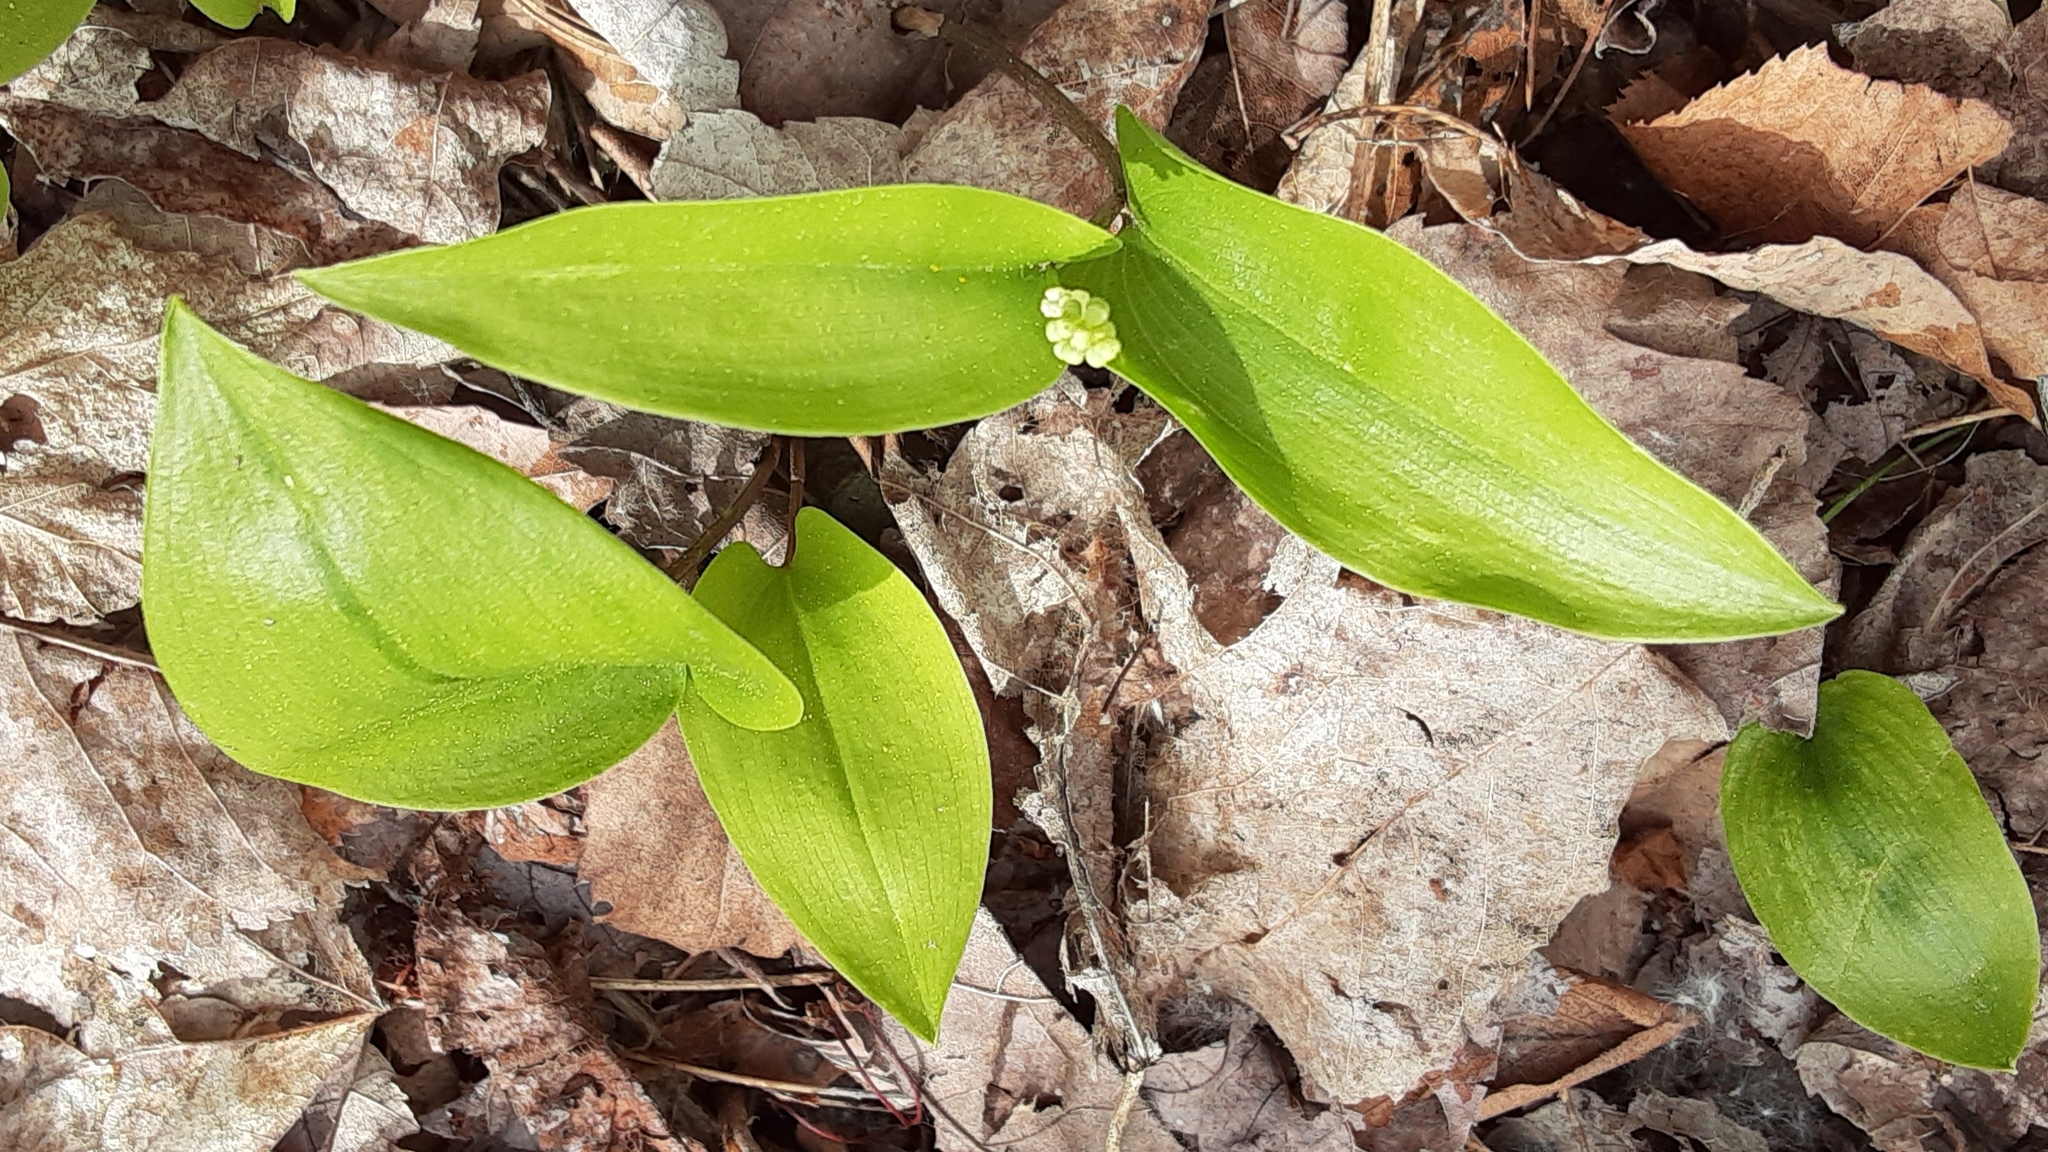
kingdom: Plantae
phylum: Tracheophyta
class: Liliopsida
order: Asparagales
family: Asparagaceae
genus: Maianthemum
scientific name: Maianthemum canadense
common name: False lily-of-the-valley
